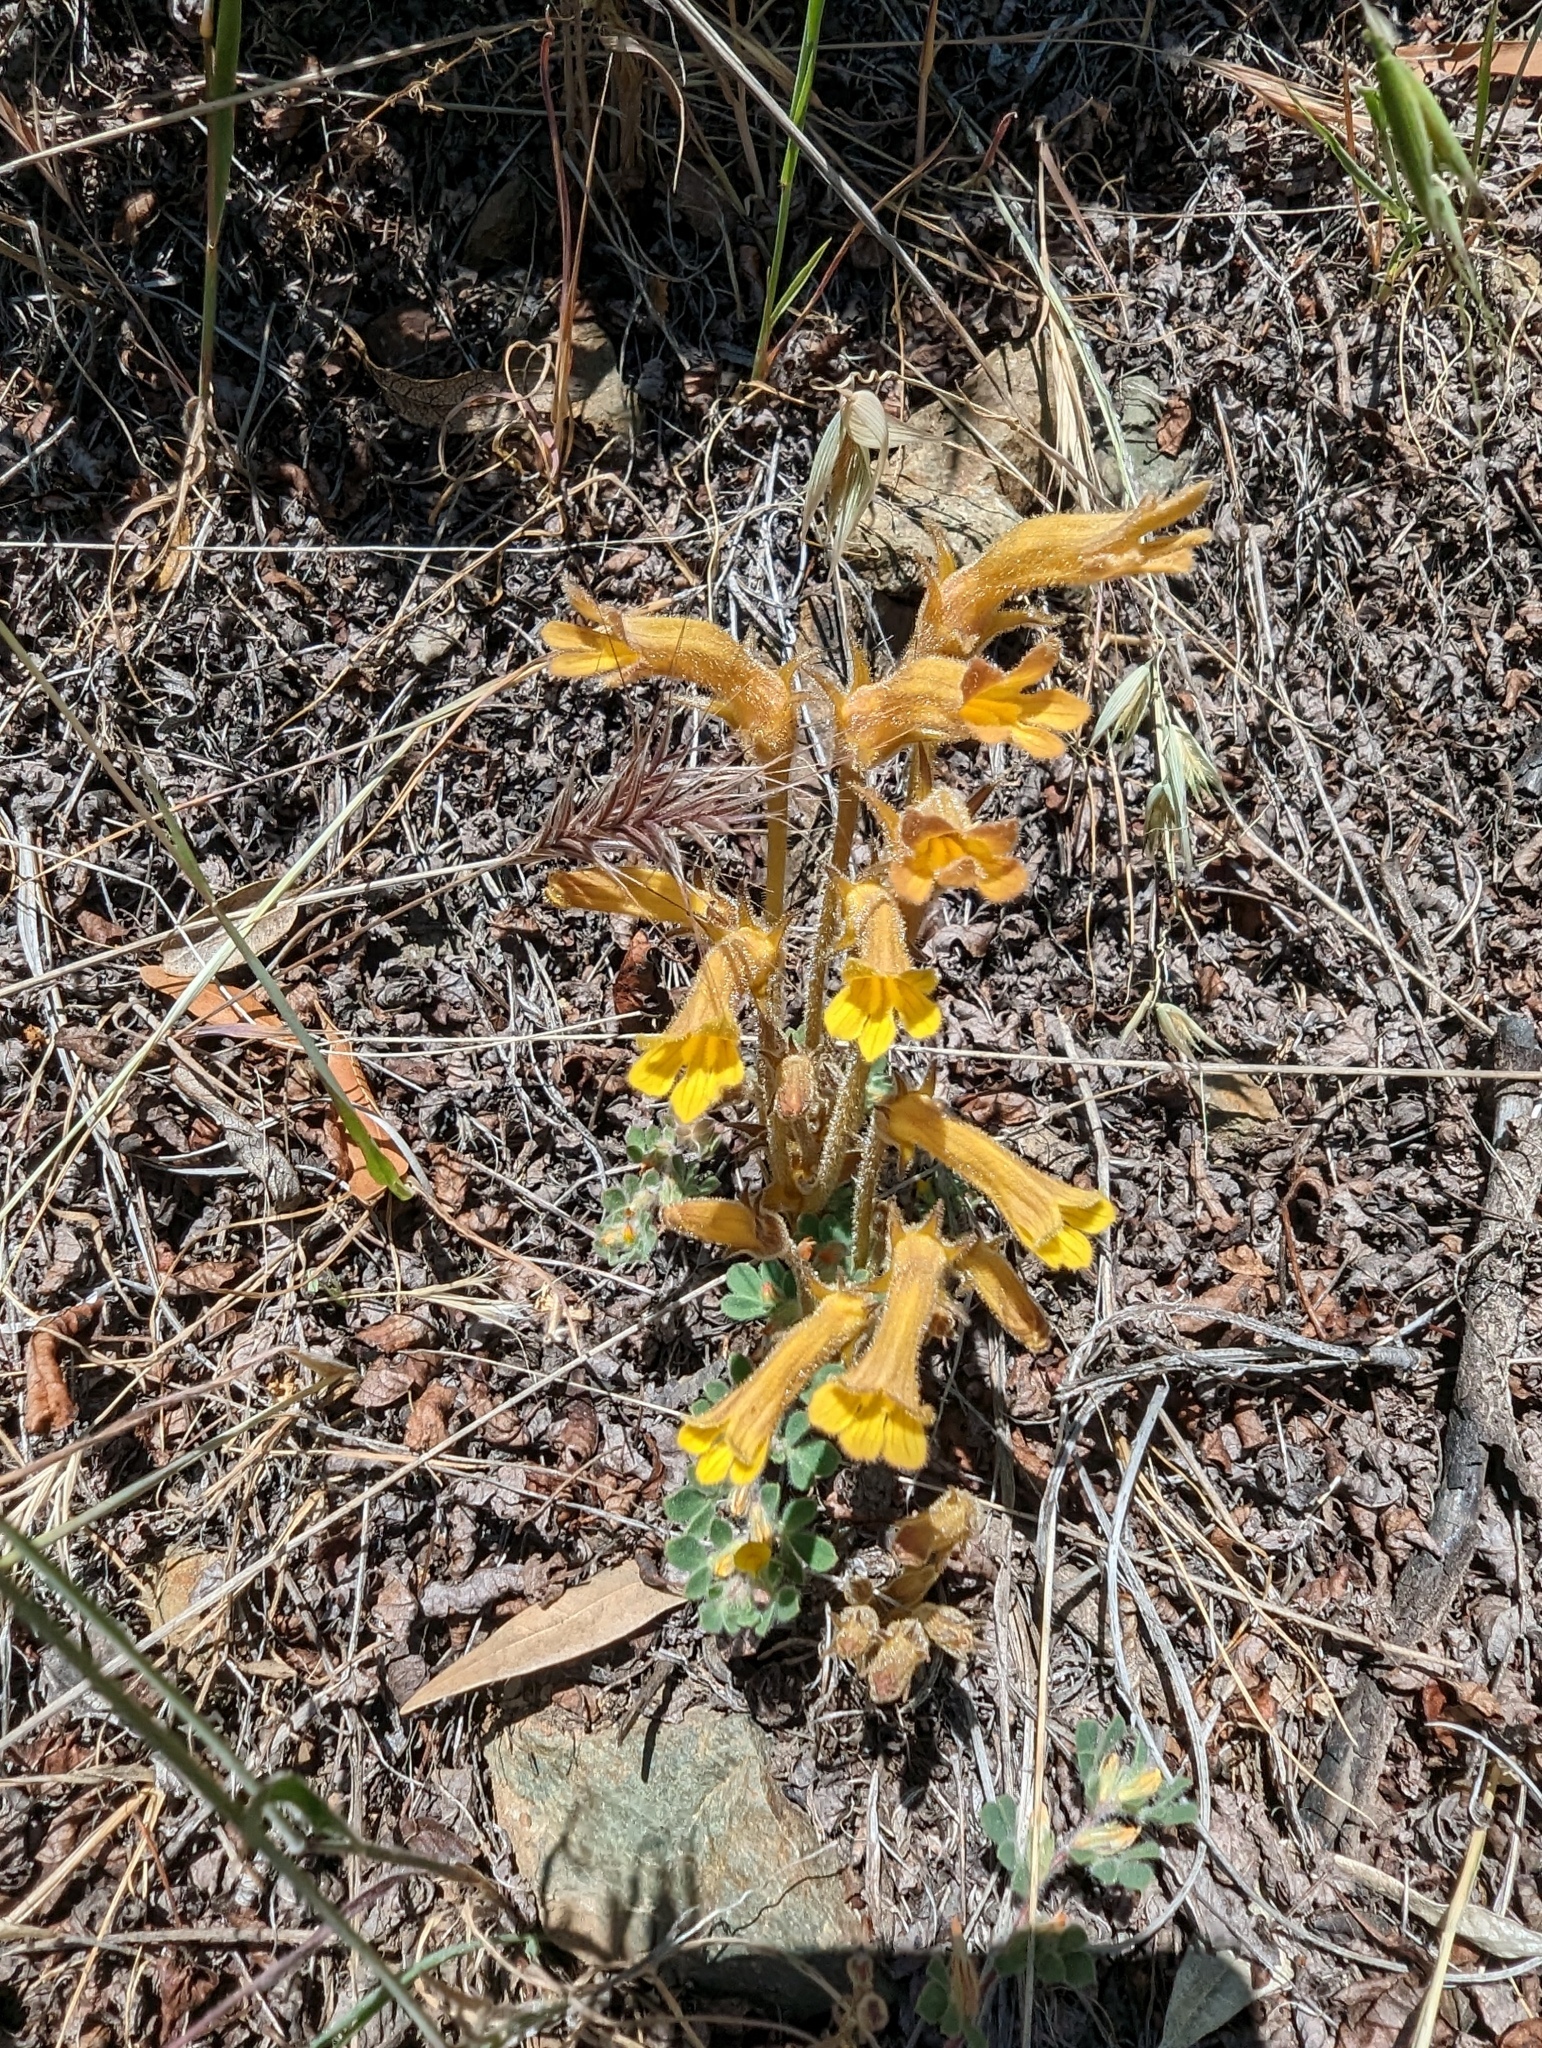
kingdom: Plantae
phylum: Tracheophyta
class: Magnoliopsida
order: Lamiales
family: Orobanchaceae
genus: Aphyllon
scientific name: Aphyllon franciscanum
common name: San francisco broomrape
